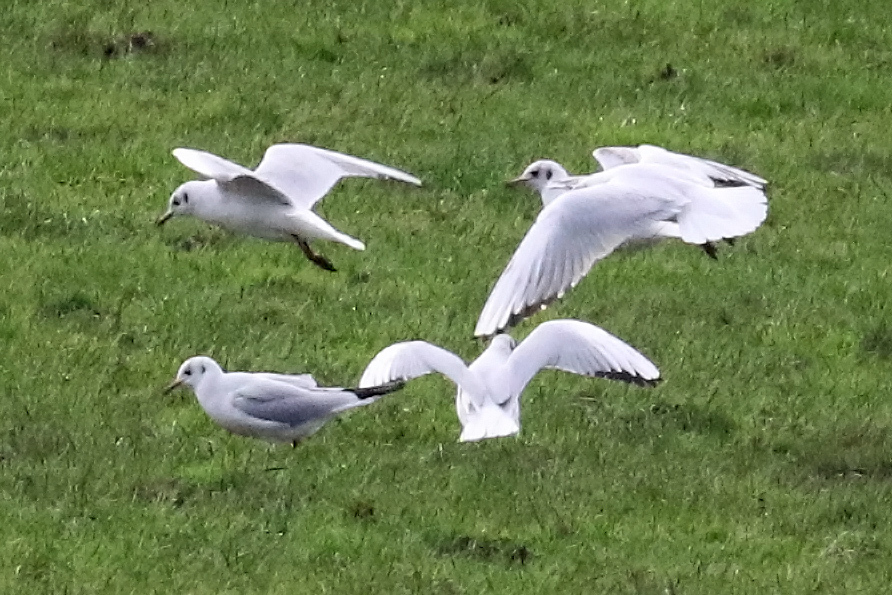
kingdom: Animalia
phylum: Chordata
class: Aves
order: Charadriiformes
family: Laridae
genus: Chroicocephalus
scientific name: Chroicocephalus ridibundus
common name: Black-headed gull
